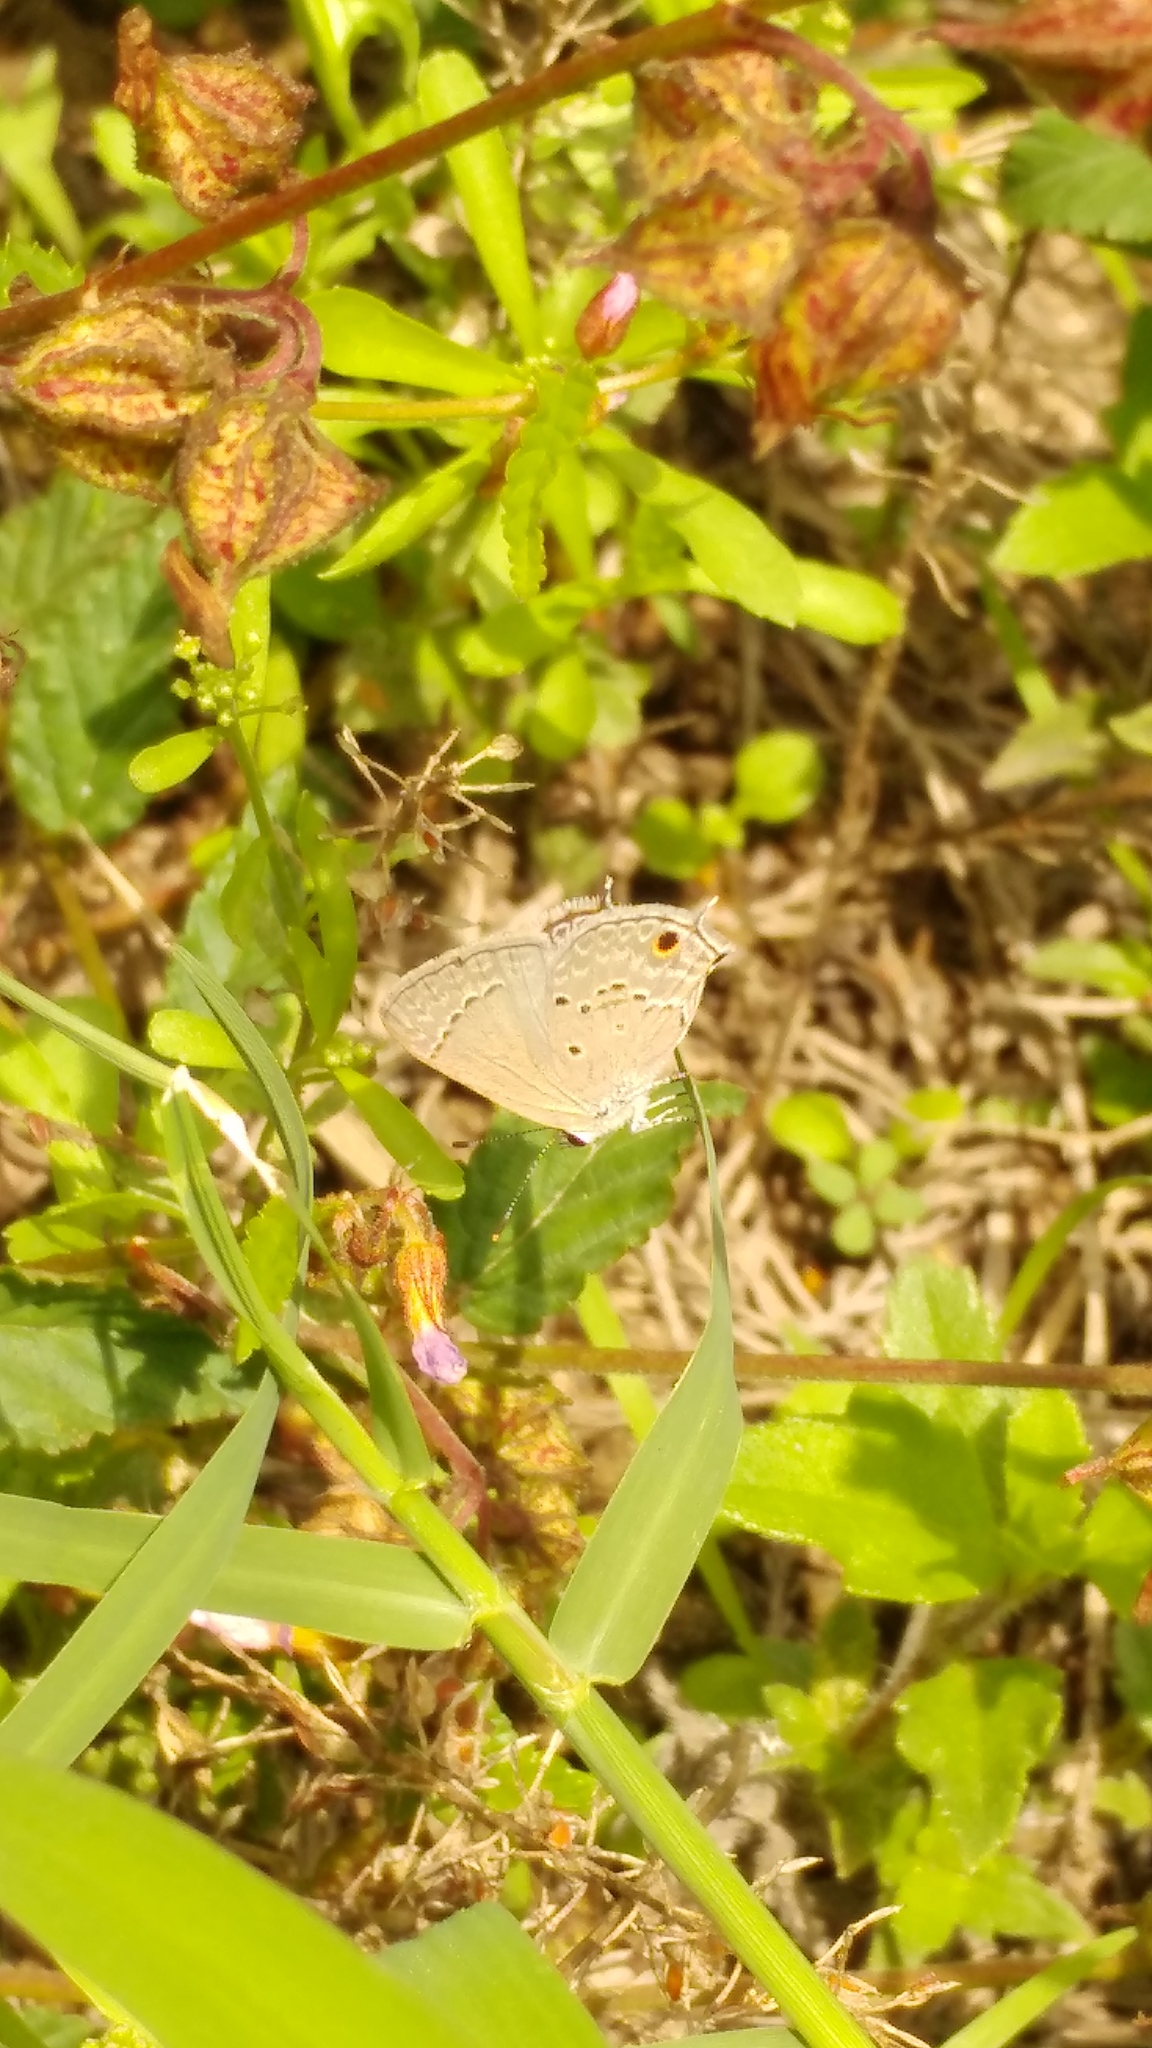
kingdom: Animalia
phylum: Arthropoda
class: Insecta
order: Lepidoptera
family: Lycaenidae
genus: Callicista
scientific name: Callicista columella
